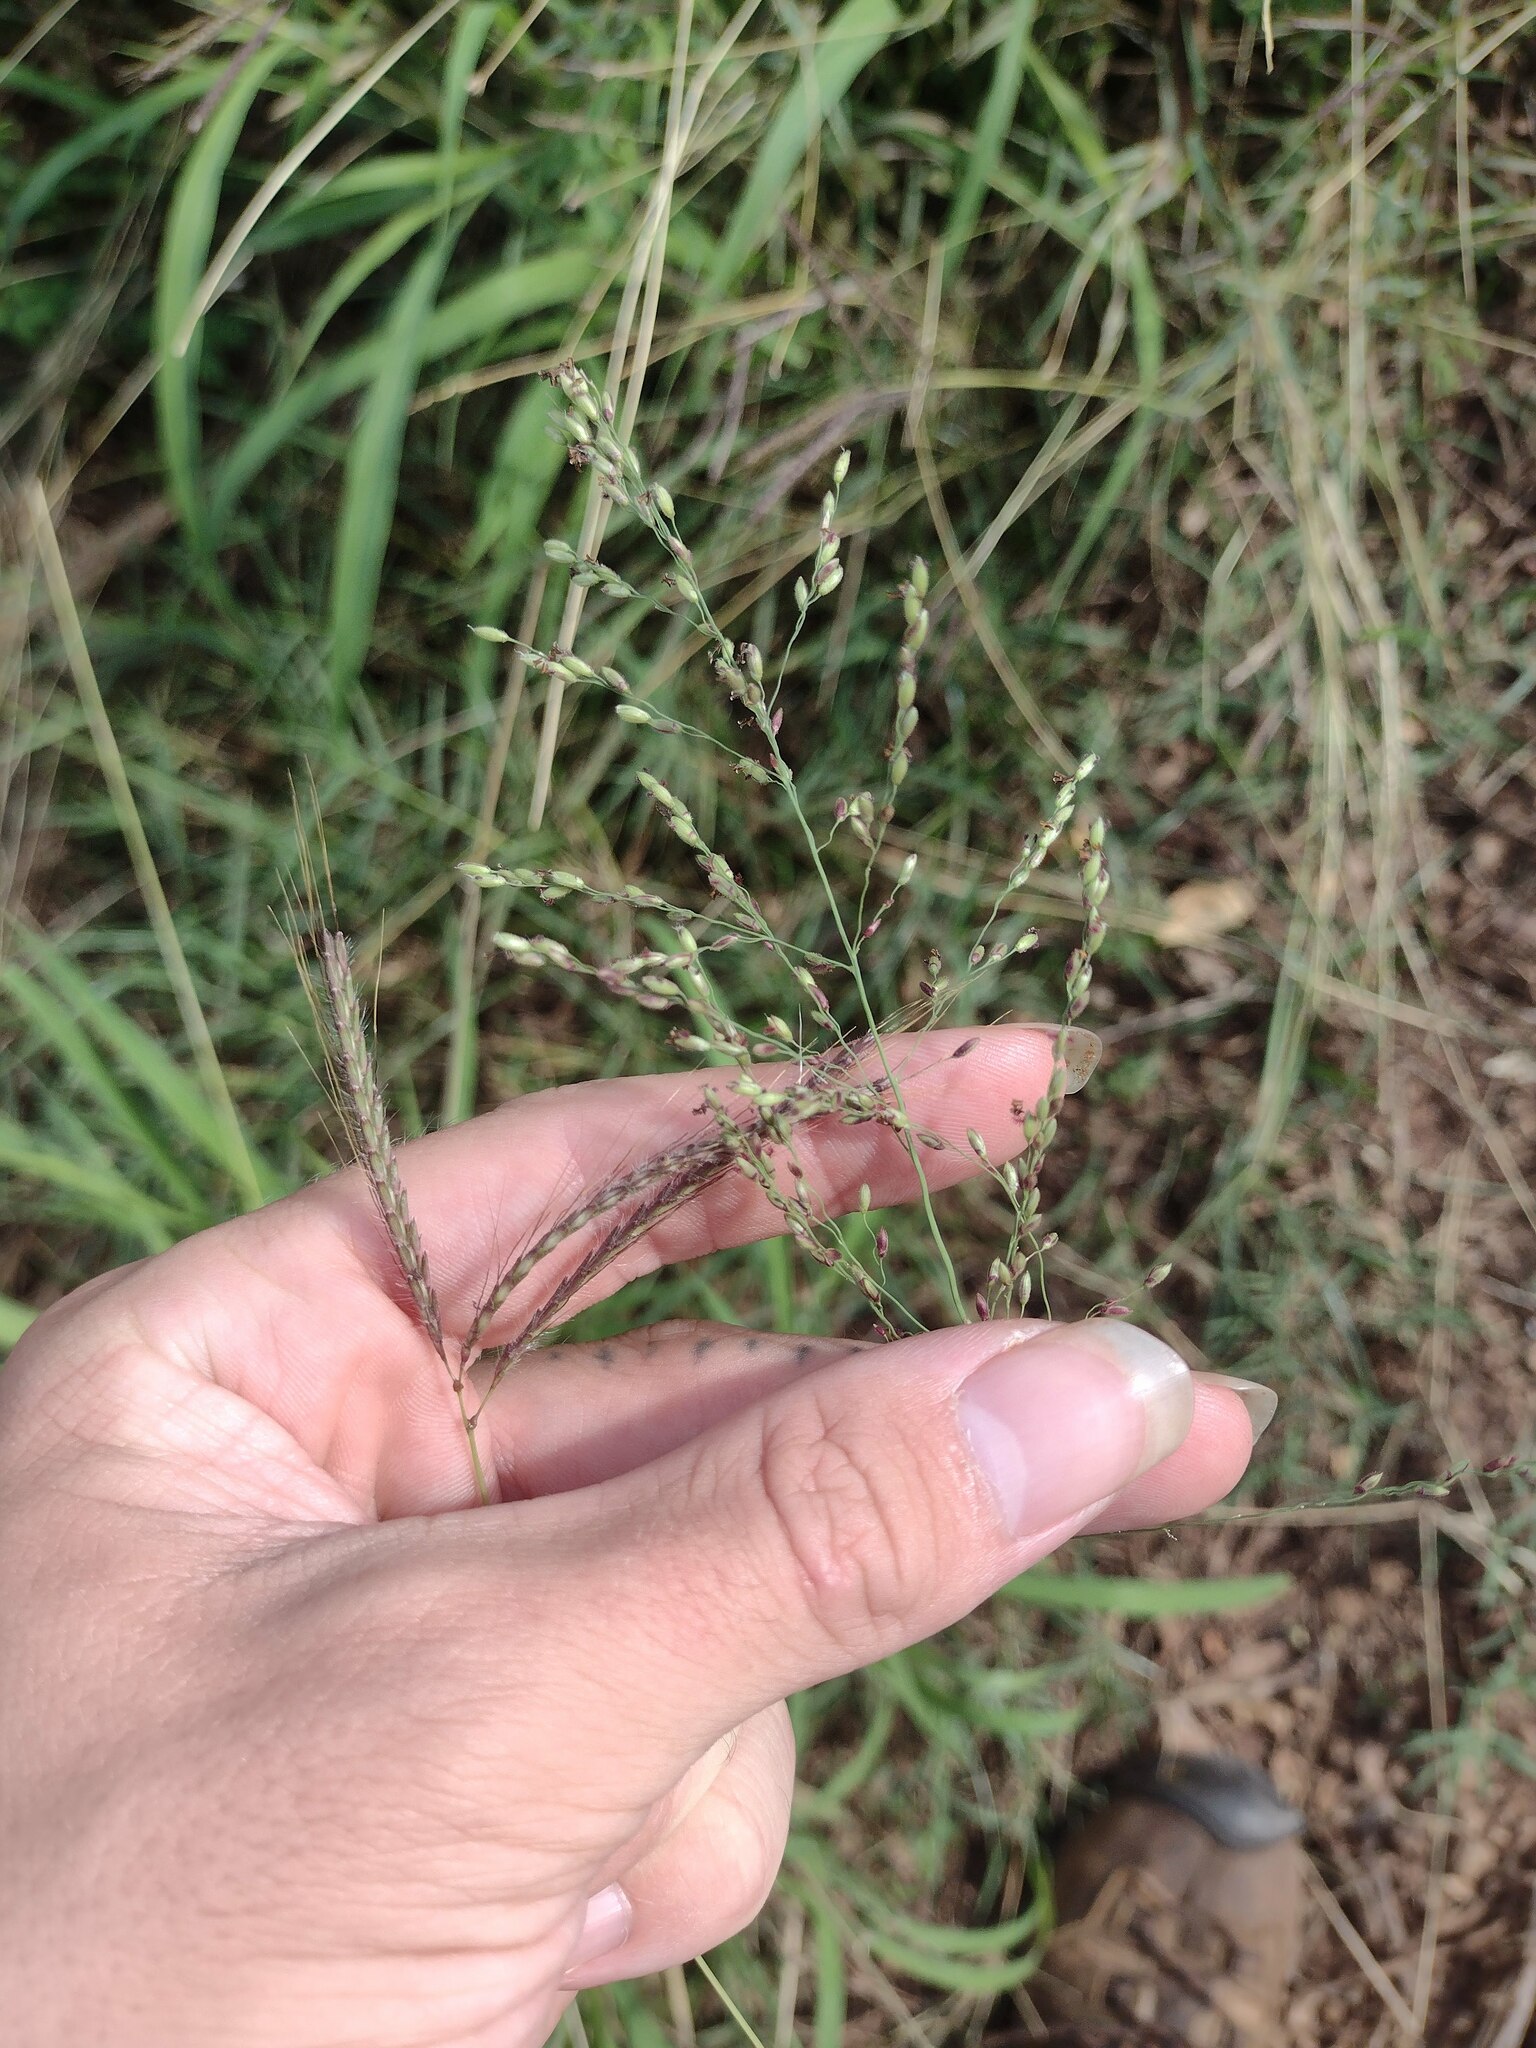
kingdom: Plantae
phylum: Tracheophyta
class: Liliopsida
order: Poales
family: Poaceae
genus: Megathyrsus
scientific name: Megathyrsus maximus
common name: Guineagrass
